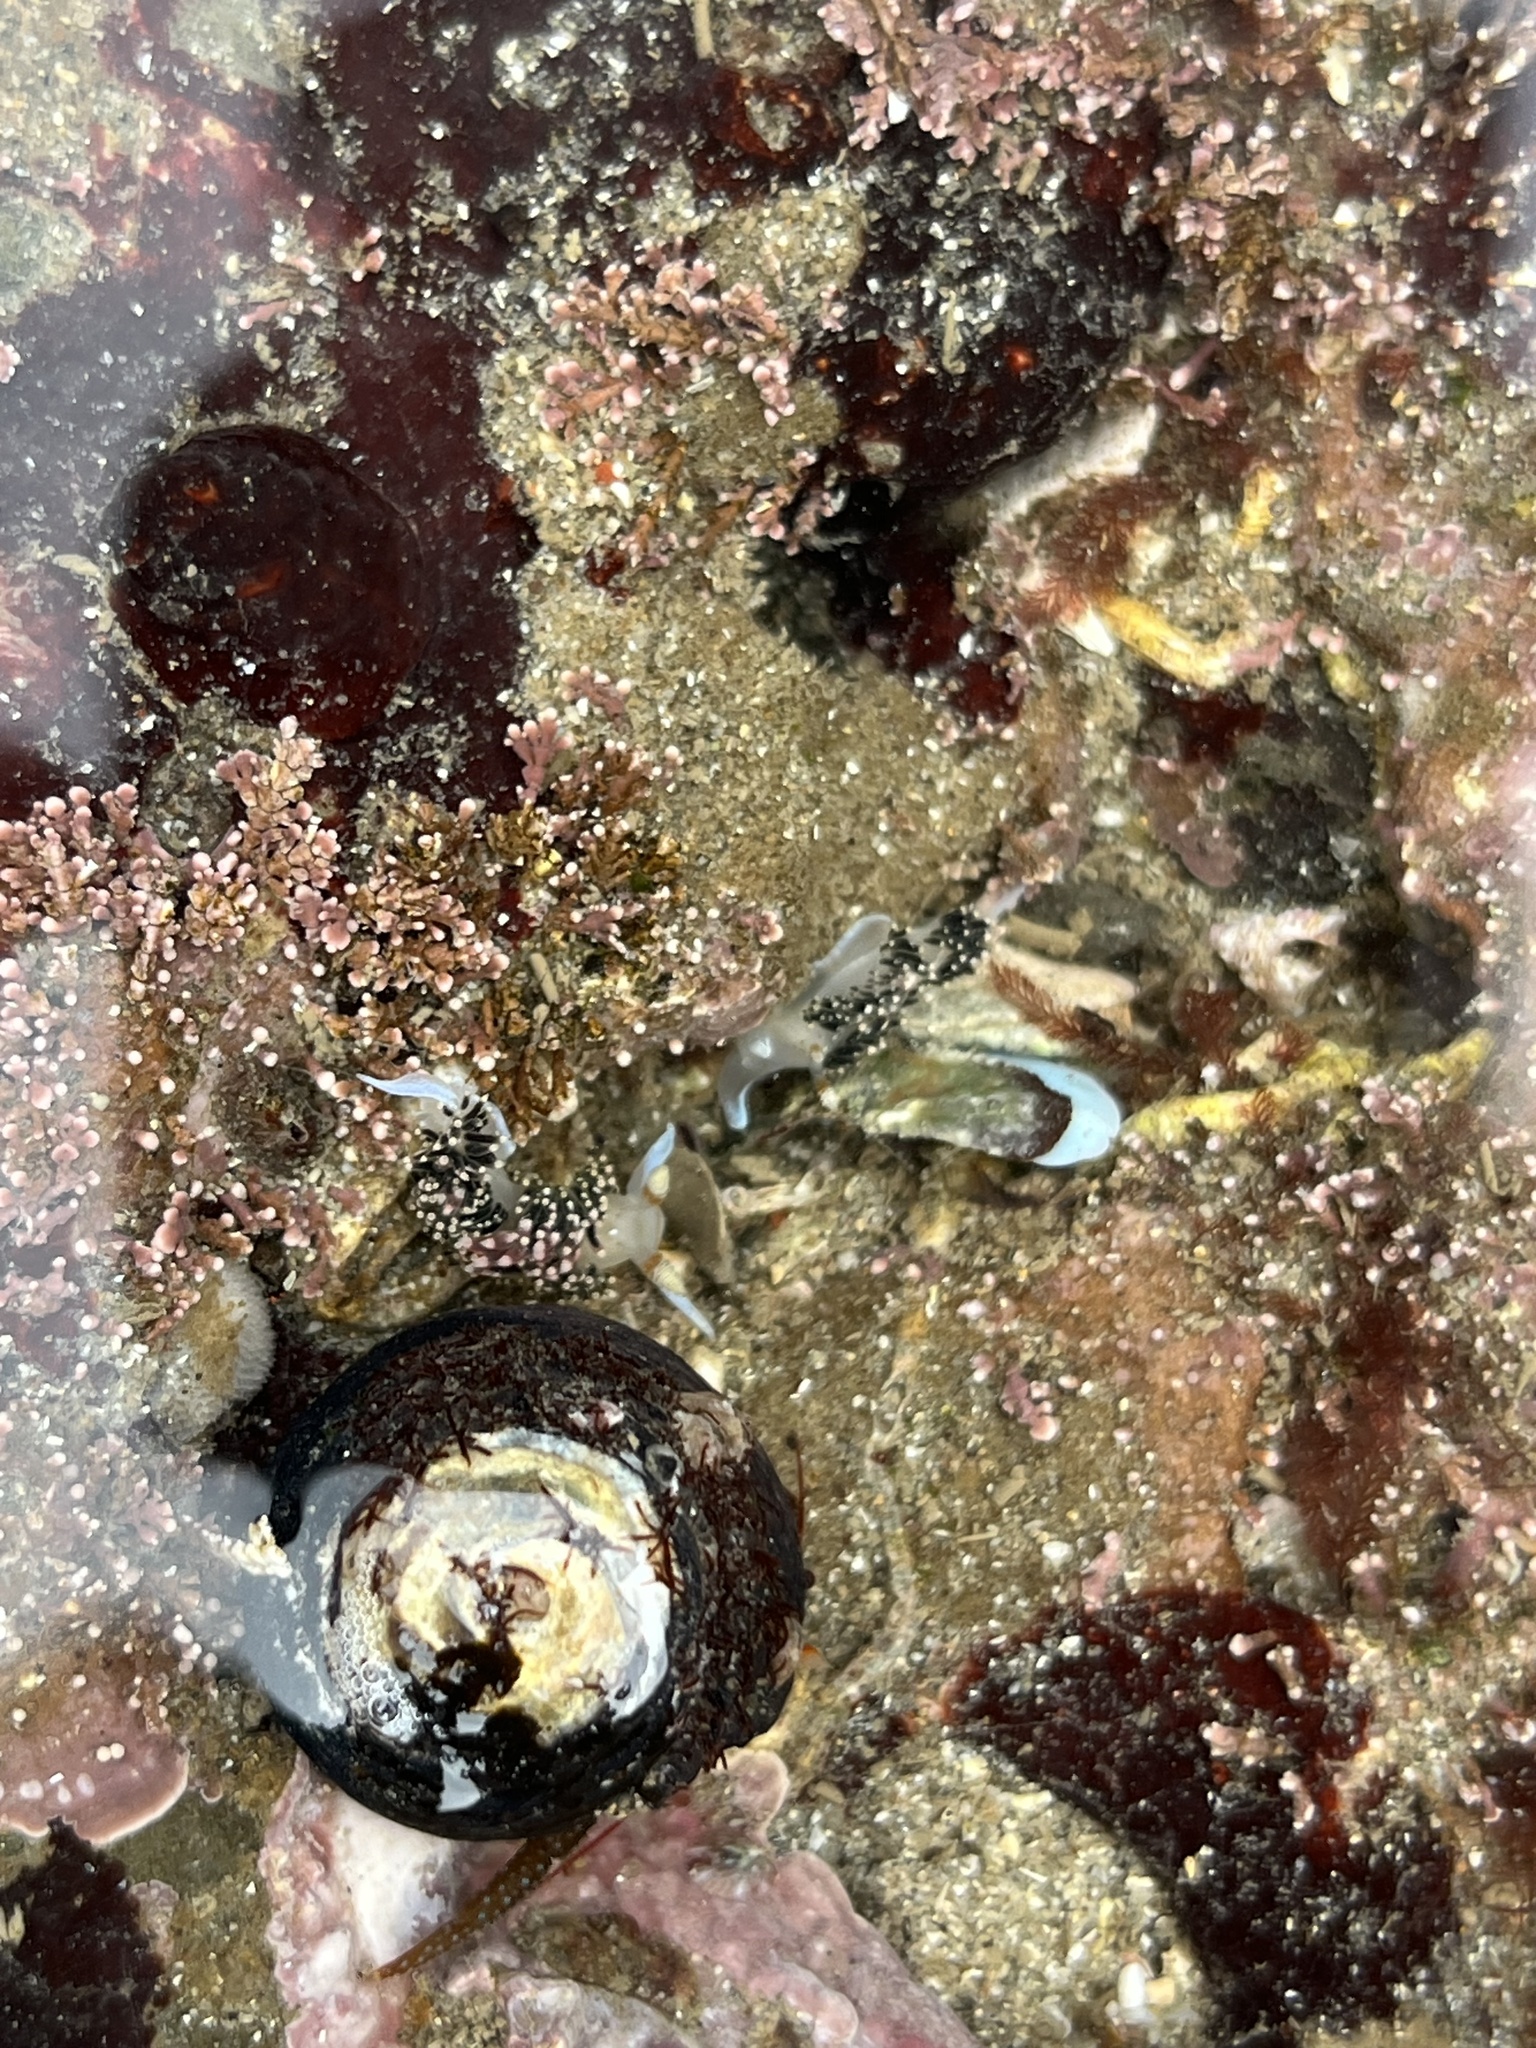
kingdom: Animalia
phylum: Mollusca
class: Gastropoda
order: Nudibranchia
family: Facelinidae
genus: Phidiana
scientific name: Phidiana hiltoni
